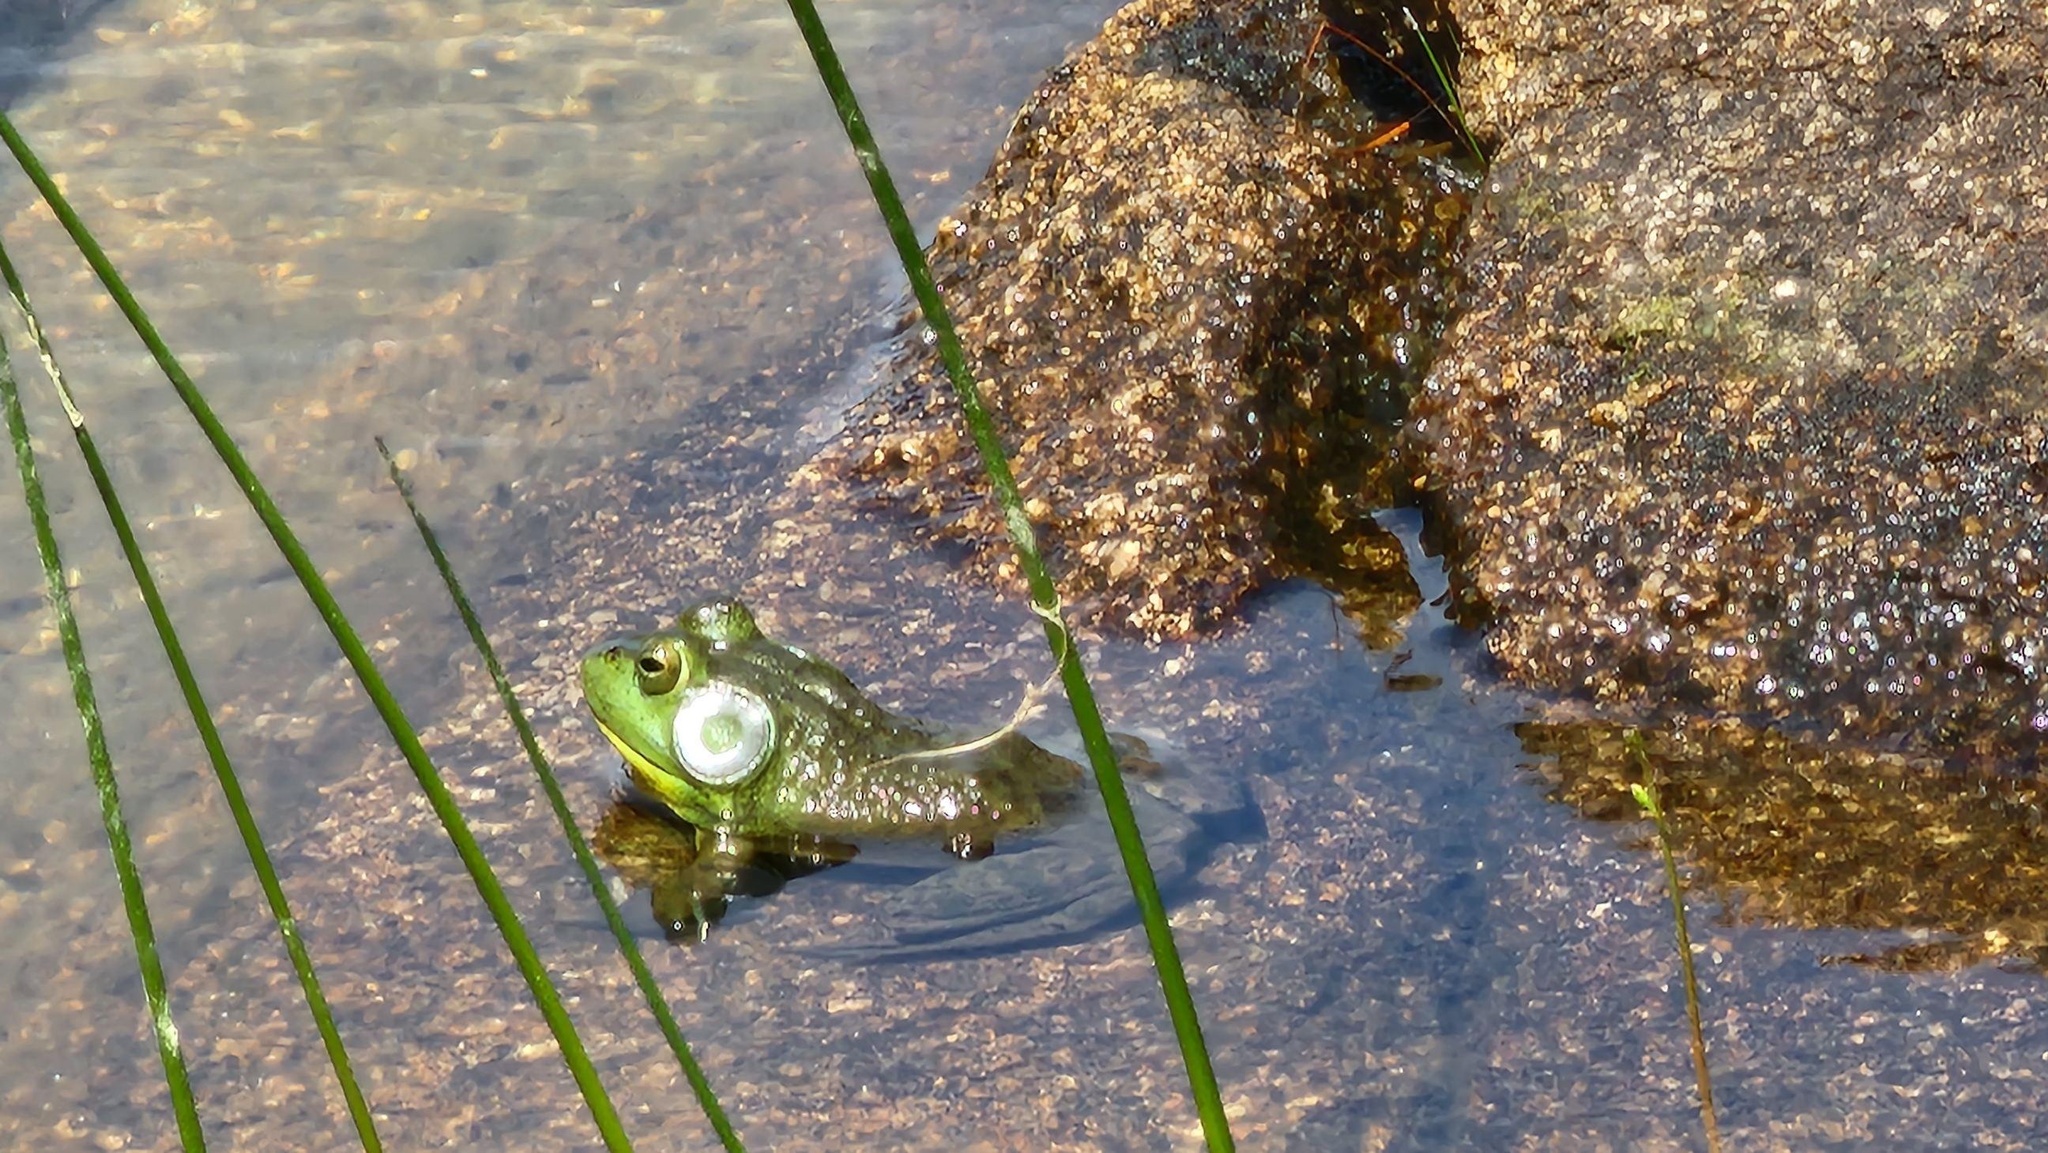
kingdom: Animalia
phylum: Chordata
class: Amphibia
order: Anura
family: Ranidae
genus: Lithobates
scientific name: Lithobates catesbeianus
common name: American bullfrog
